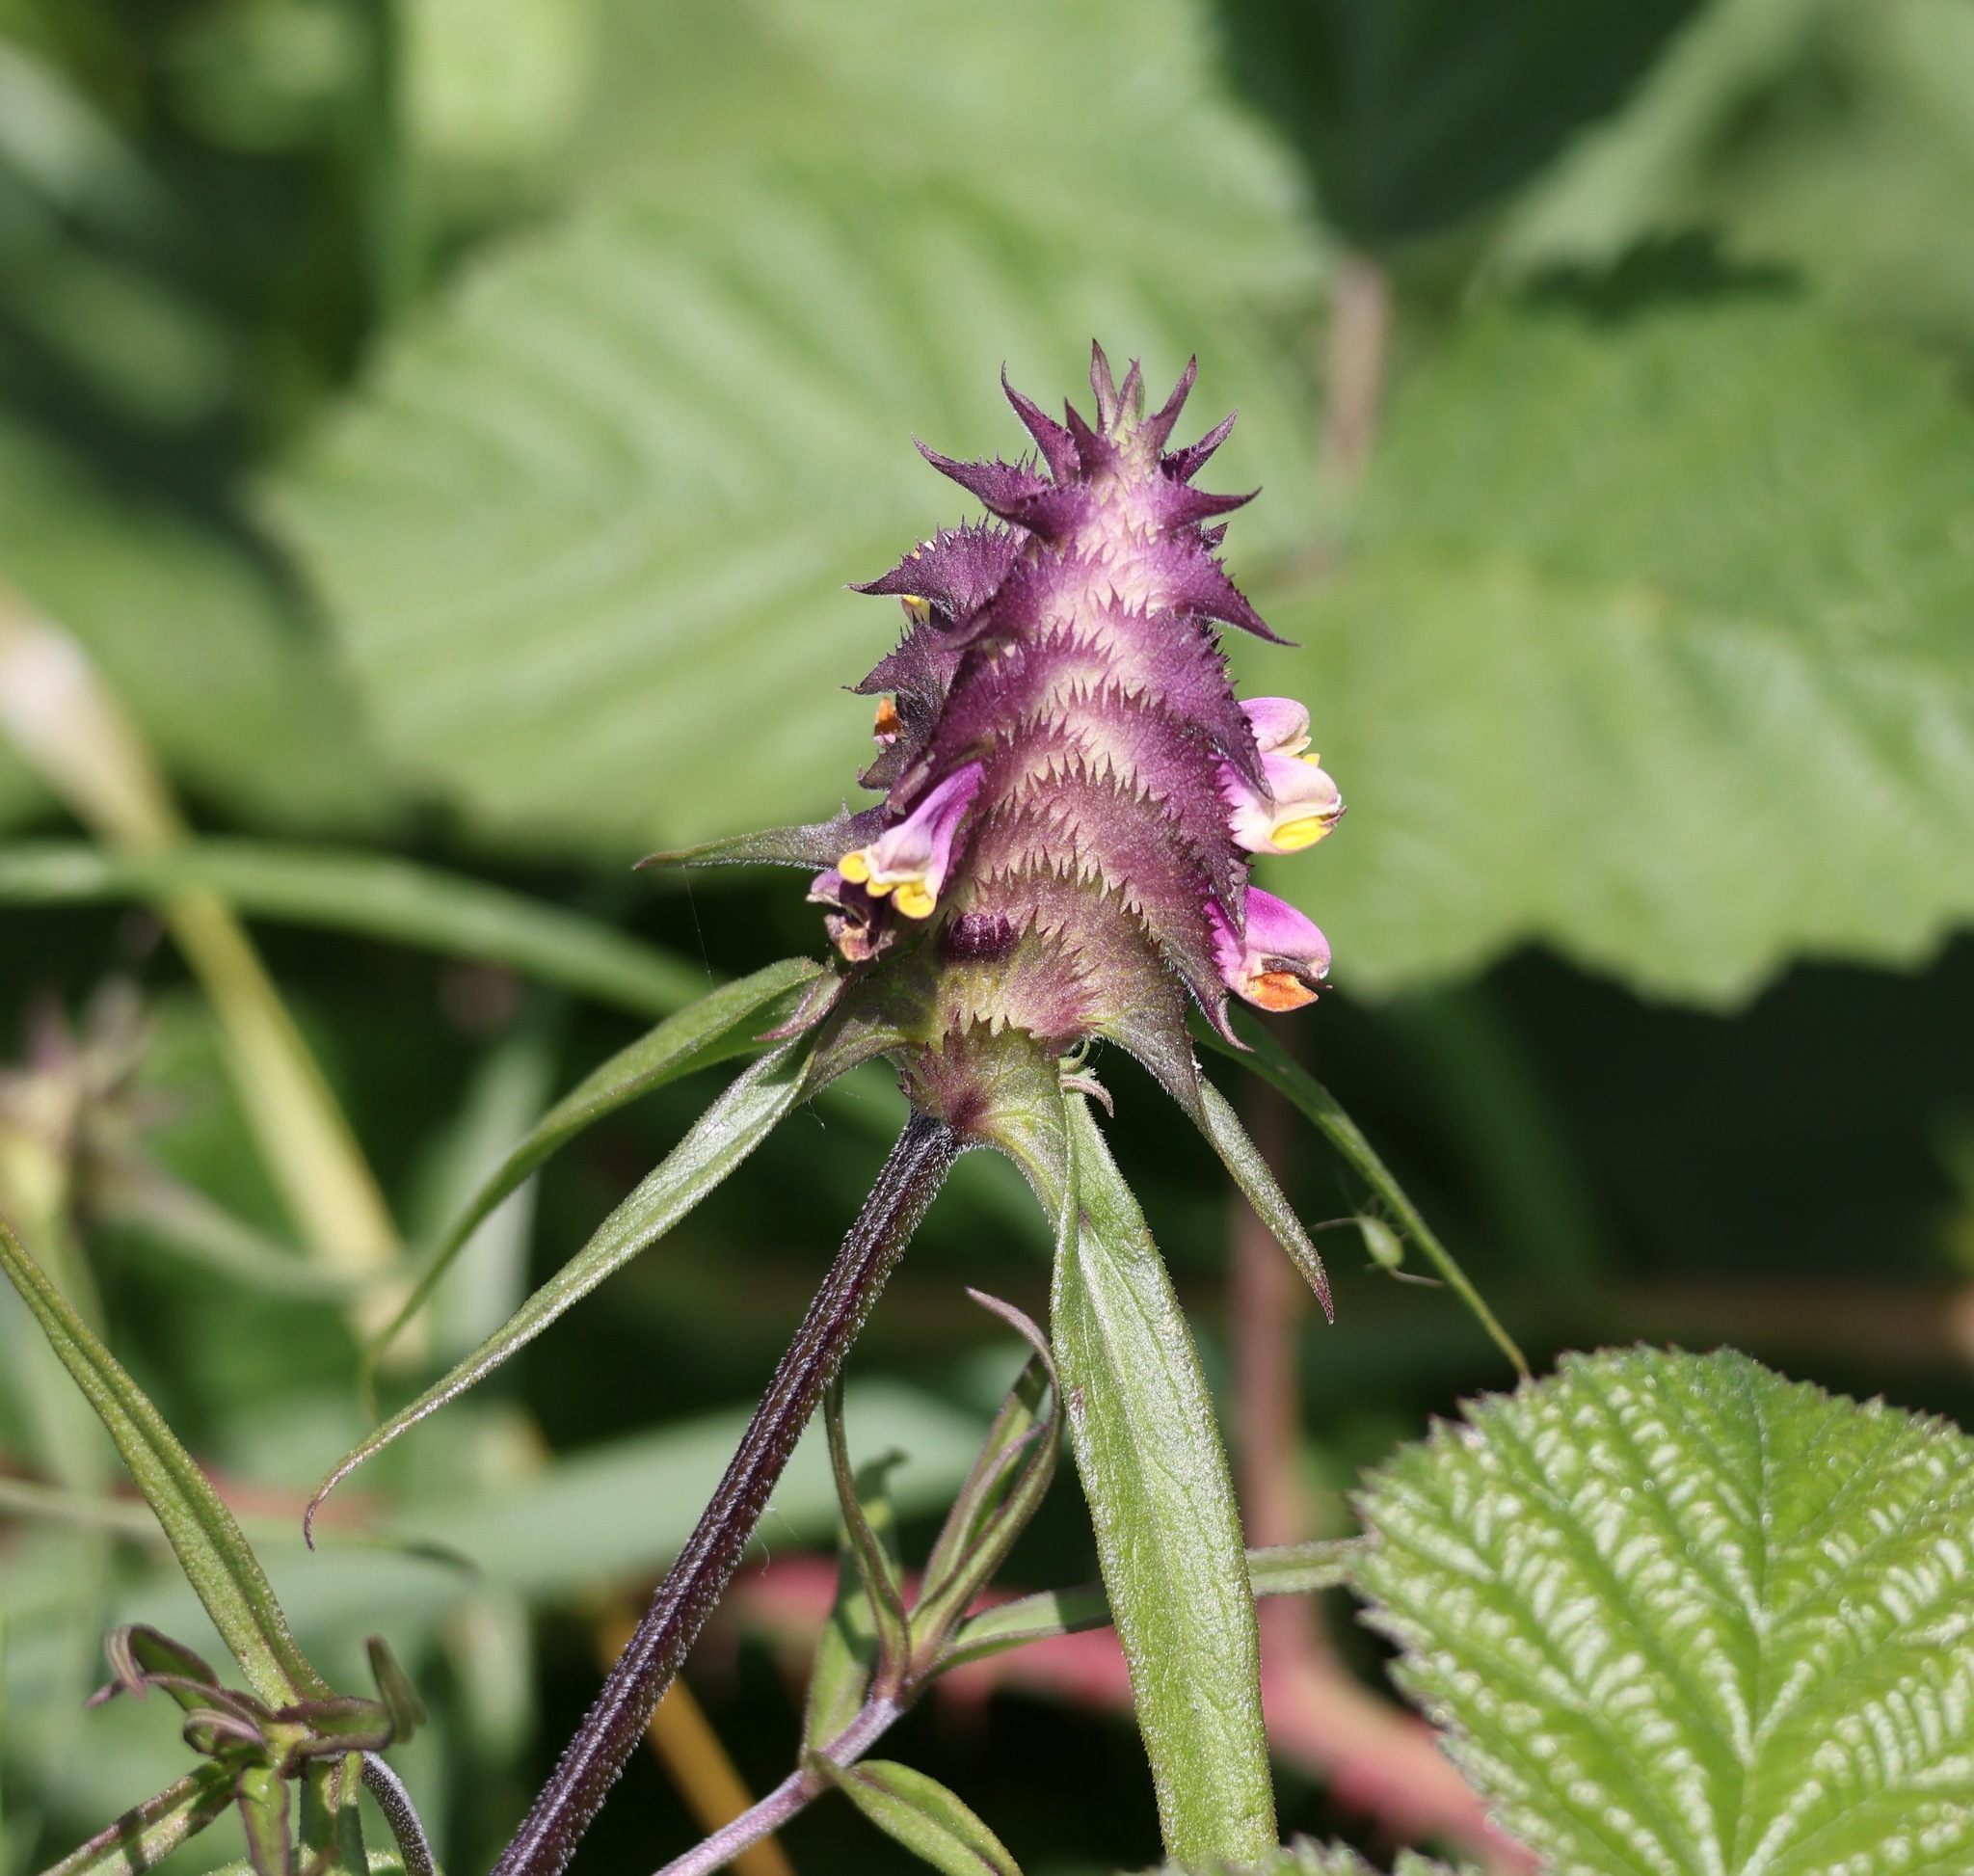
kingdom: Plantae
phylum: Tracheophyta
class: Magnoliopsida
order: Lamiales
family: Orobanchaceae
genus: Melampyrum
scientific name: Melampyrum cristatum
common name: Crested cow-wheat
